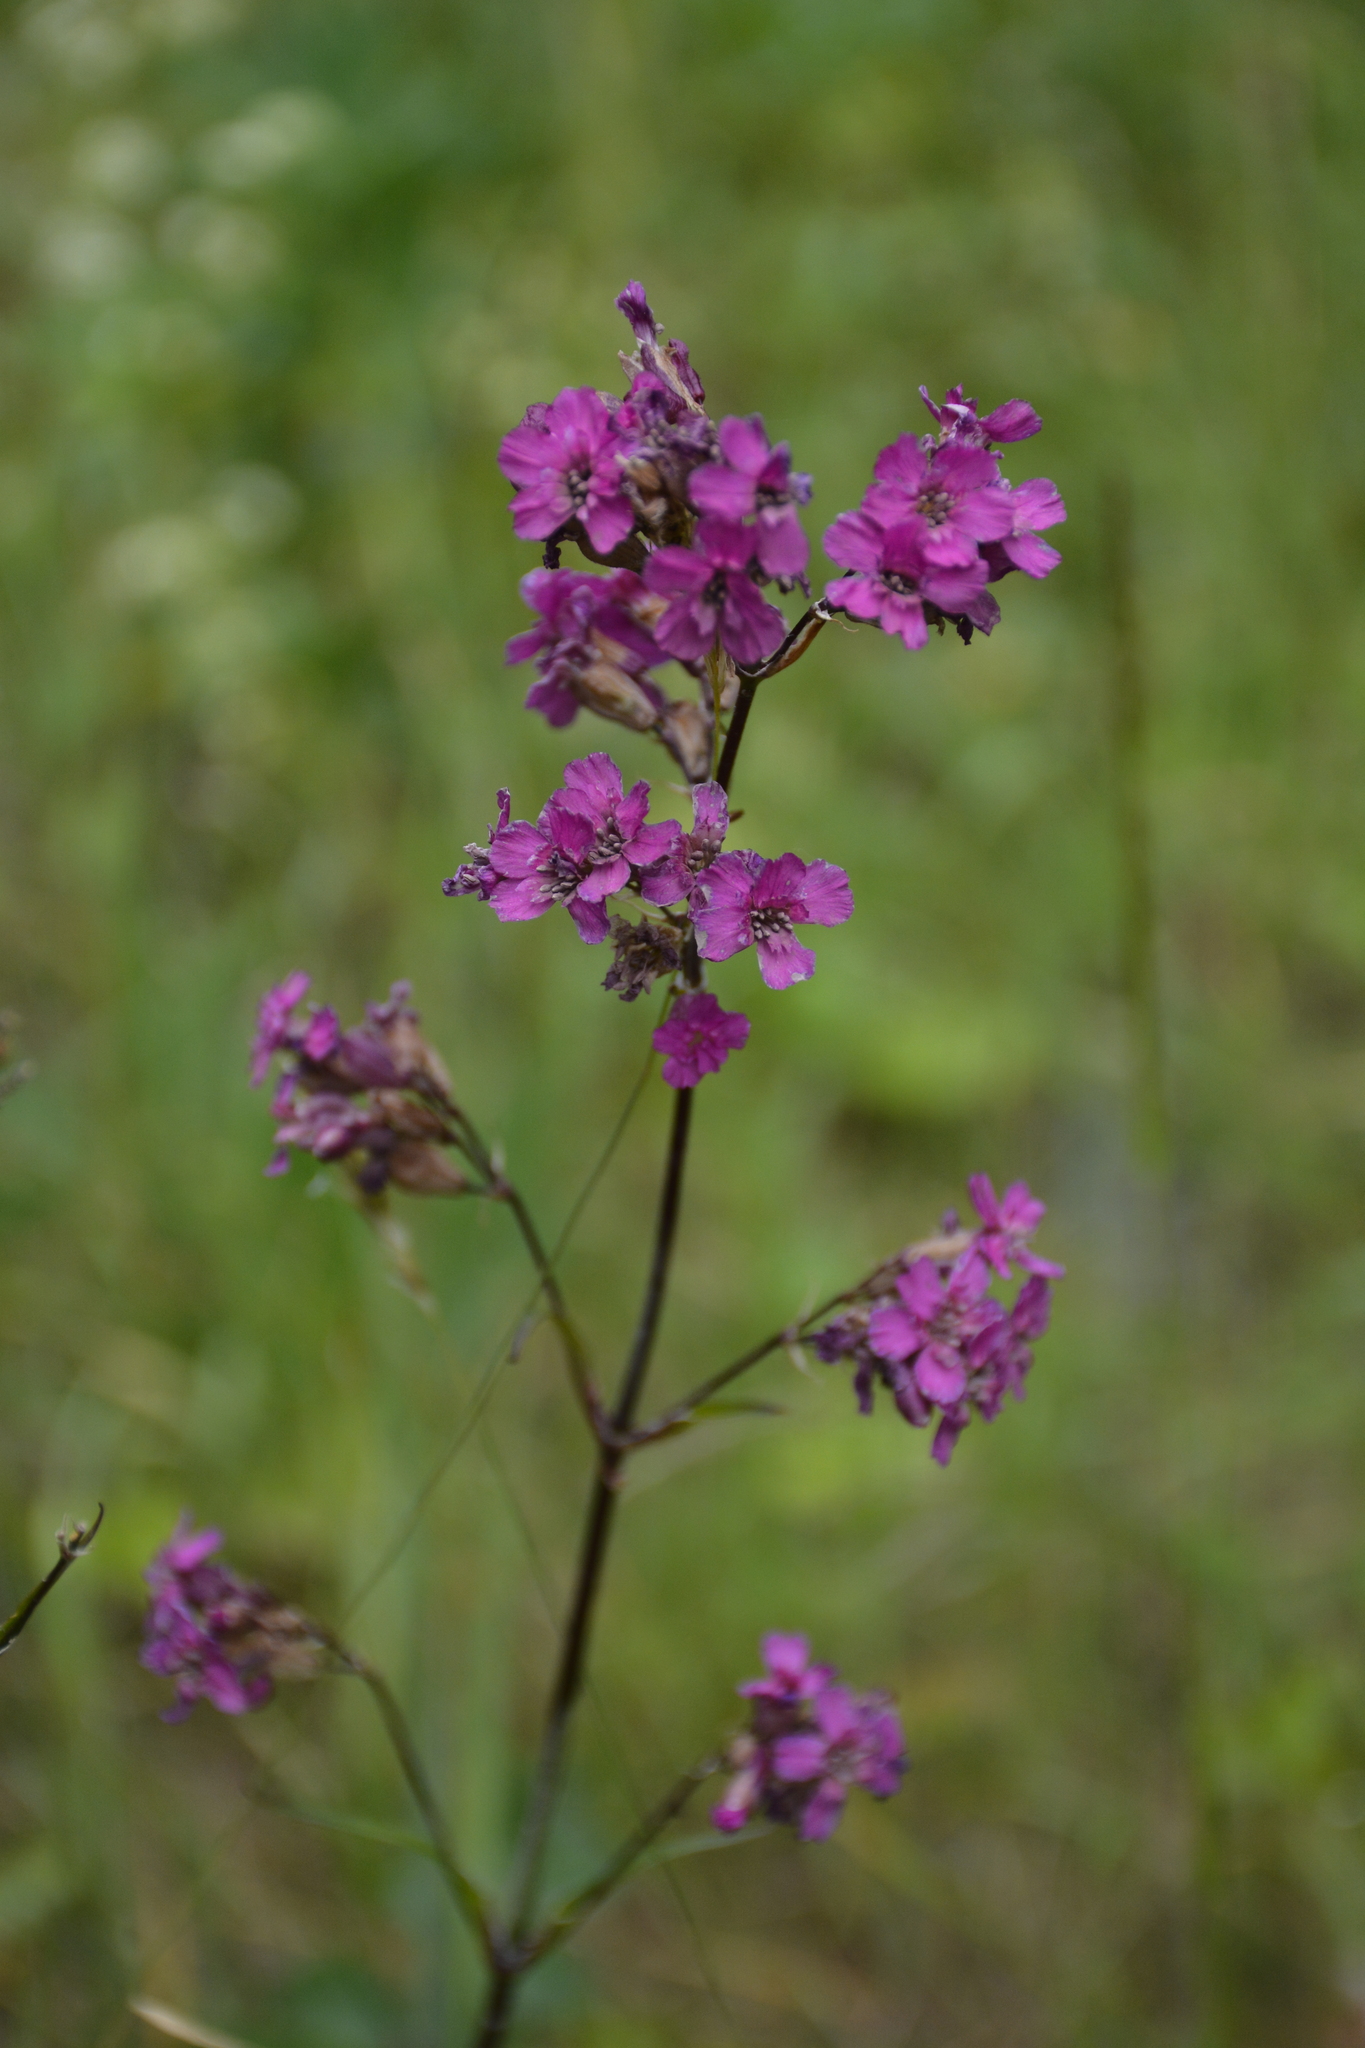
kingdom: Plantae
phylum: Tracheophyta
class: Magnoliopsida
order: Caryophyllales
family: Caryophyllaceae
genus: Viscaria
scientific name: Viscaria vulgaris
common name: Clammy campion
